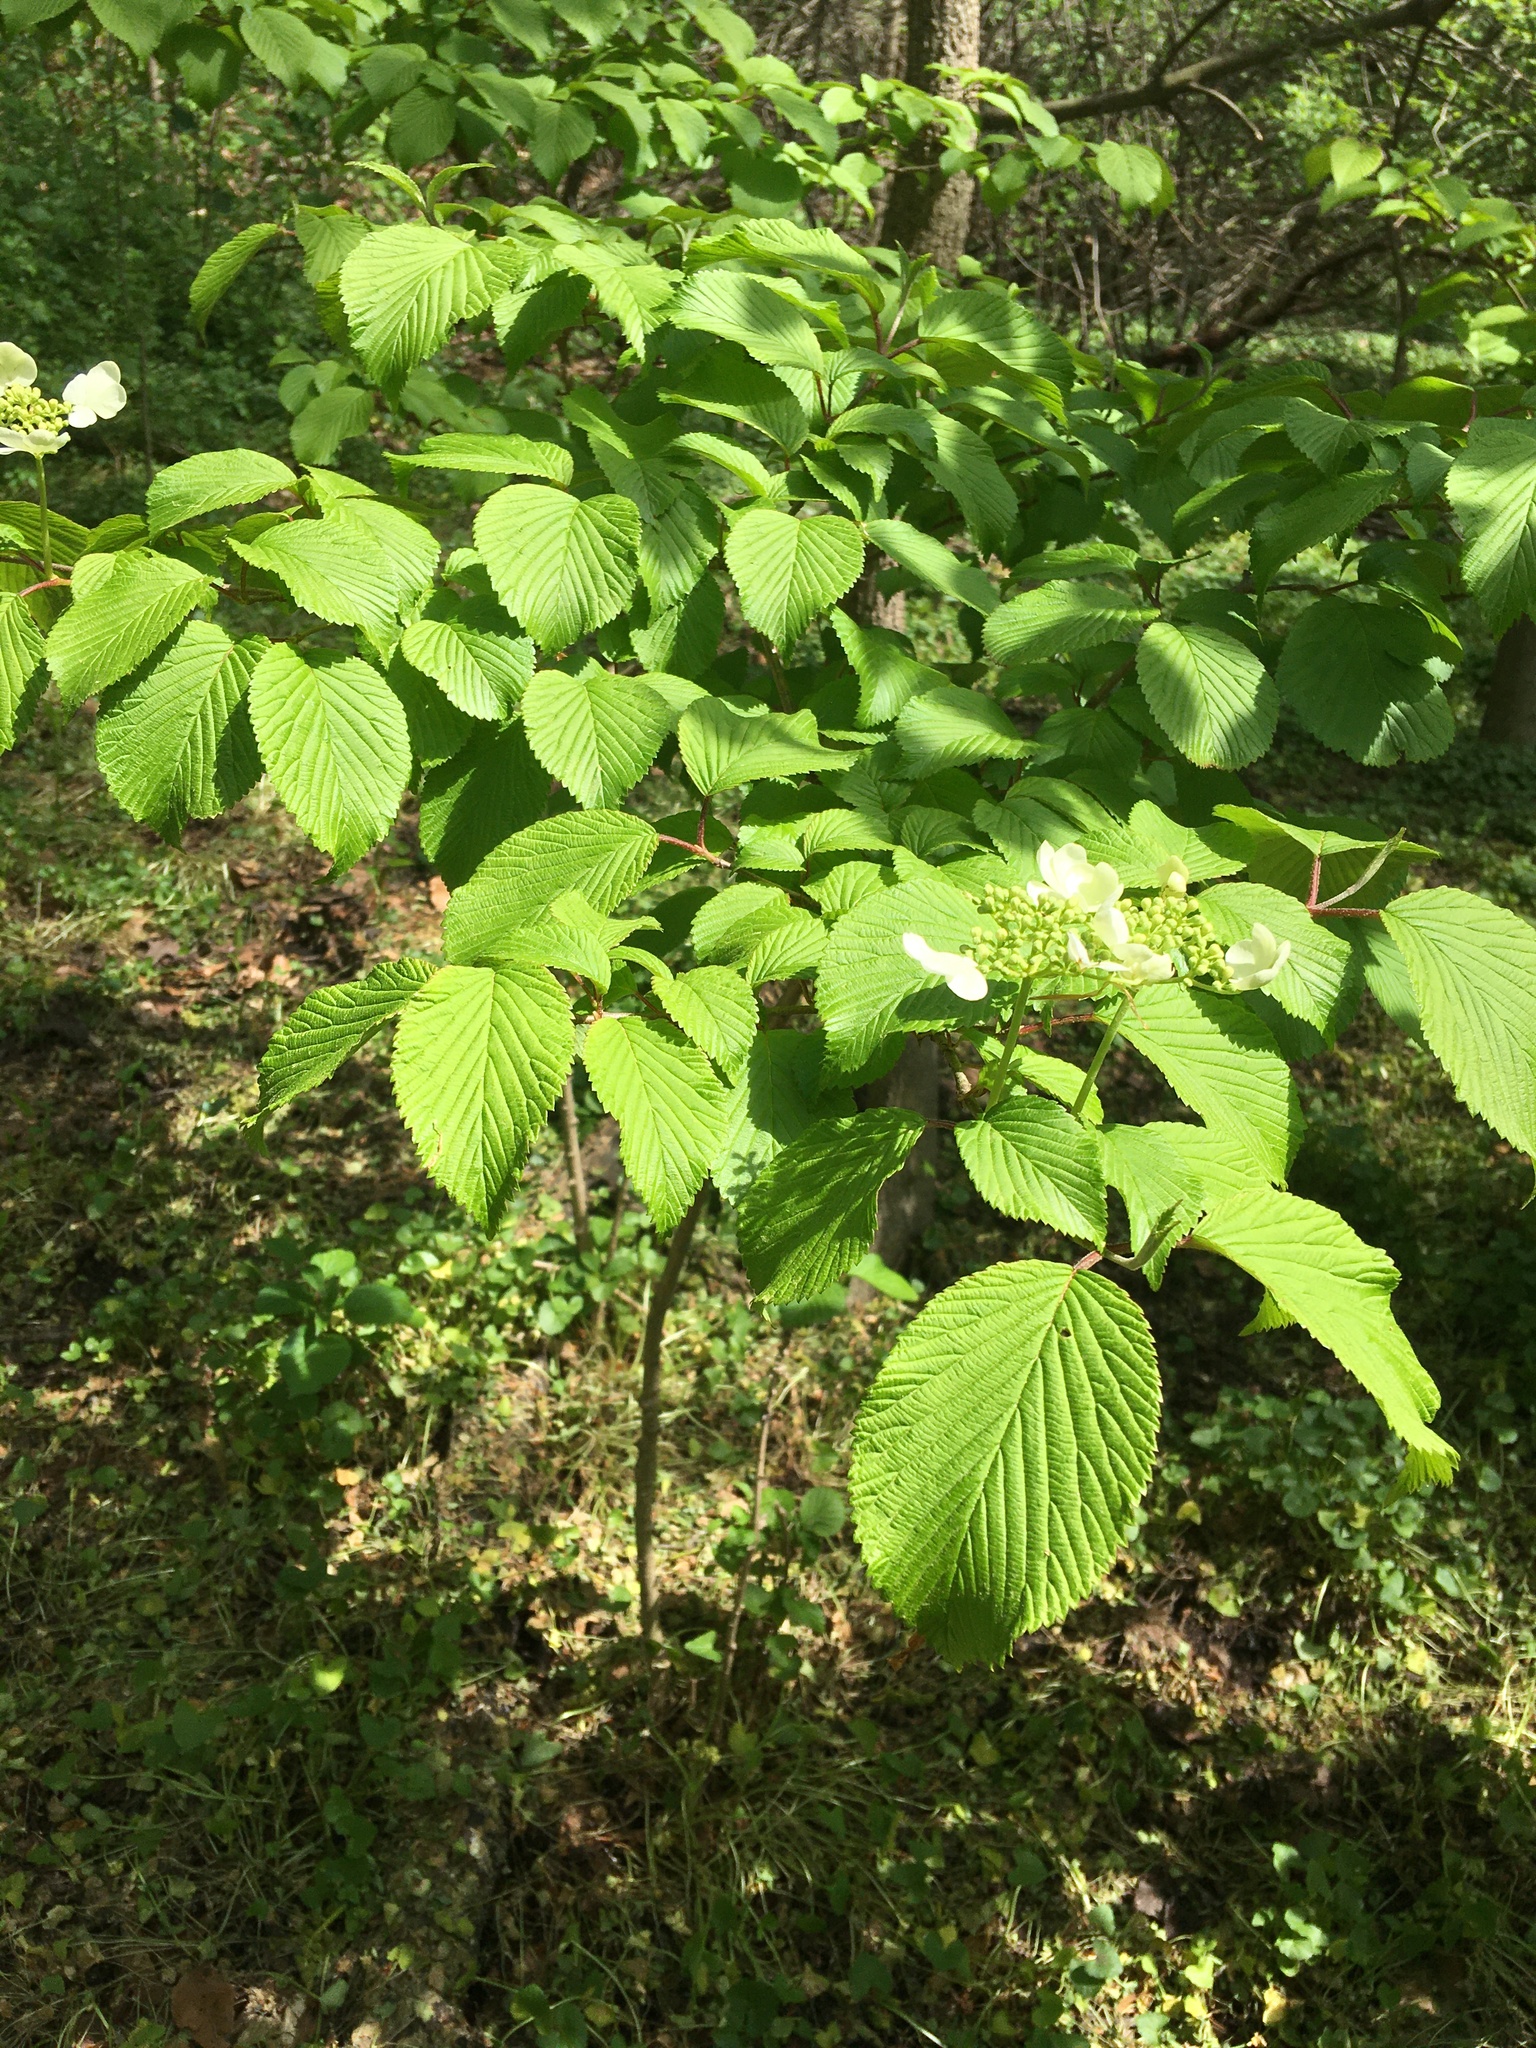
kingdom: Plantae
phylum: Tracheophyta
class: Magnoliopsida
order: Dipsacales
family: Viburnaceae
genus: Viburnum
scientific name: Viburnum plicatum
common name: Japanese snowball
